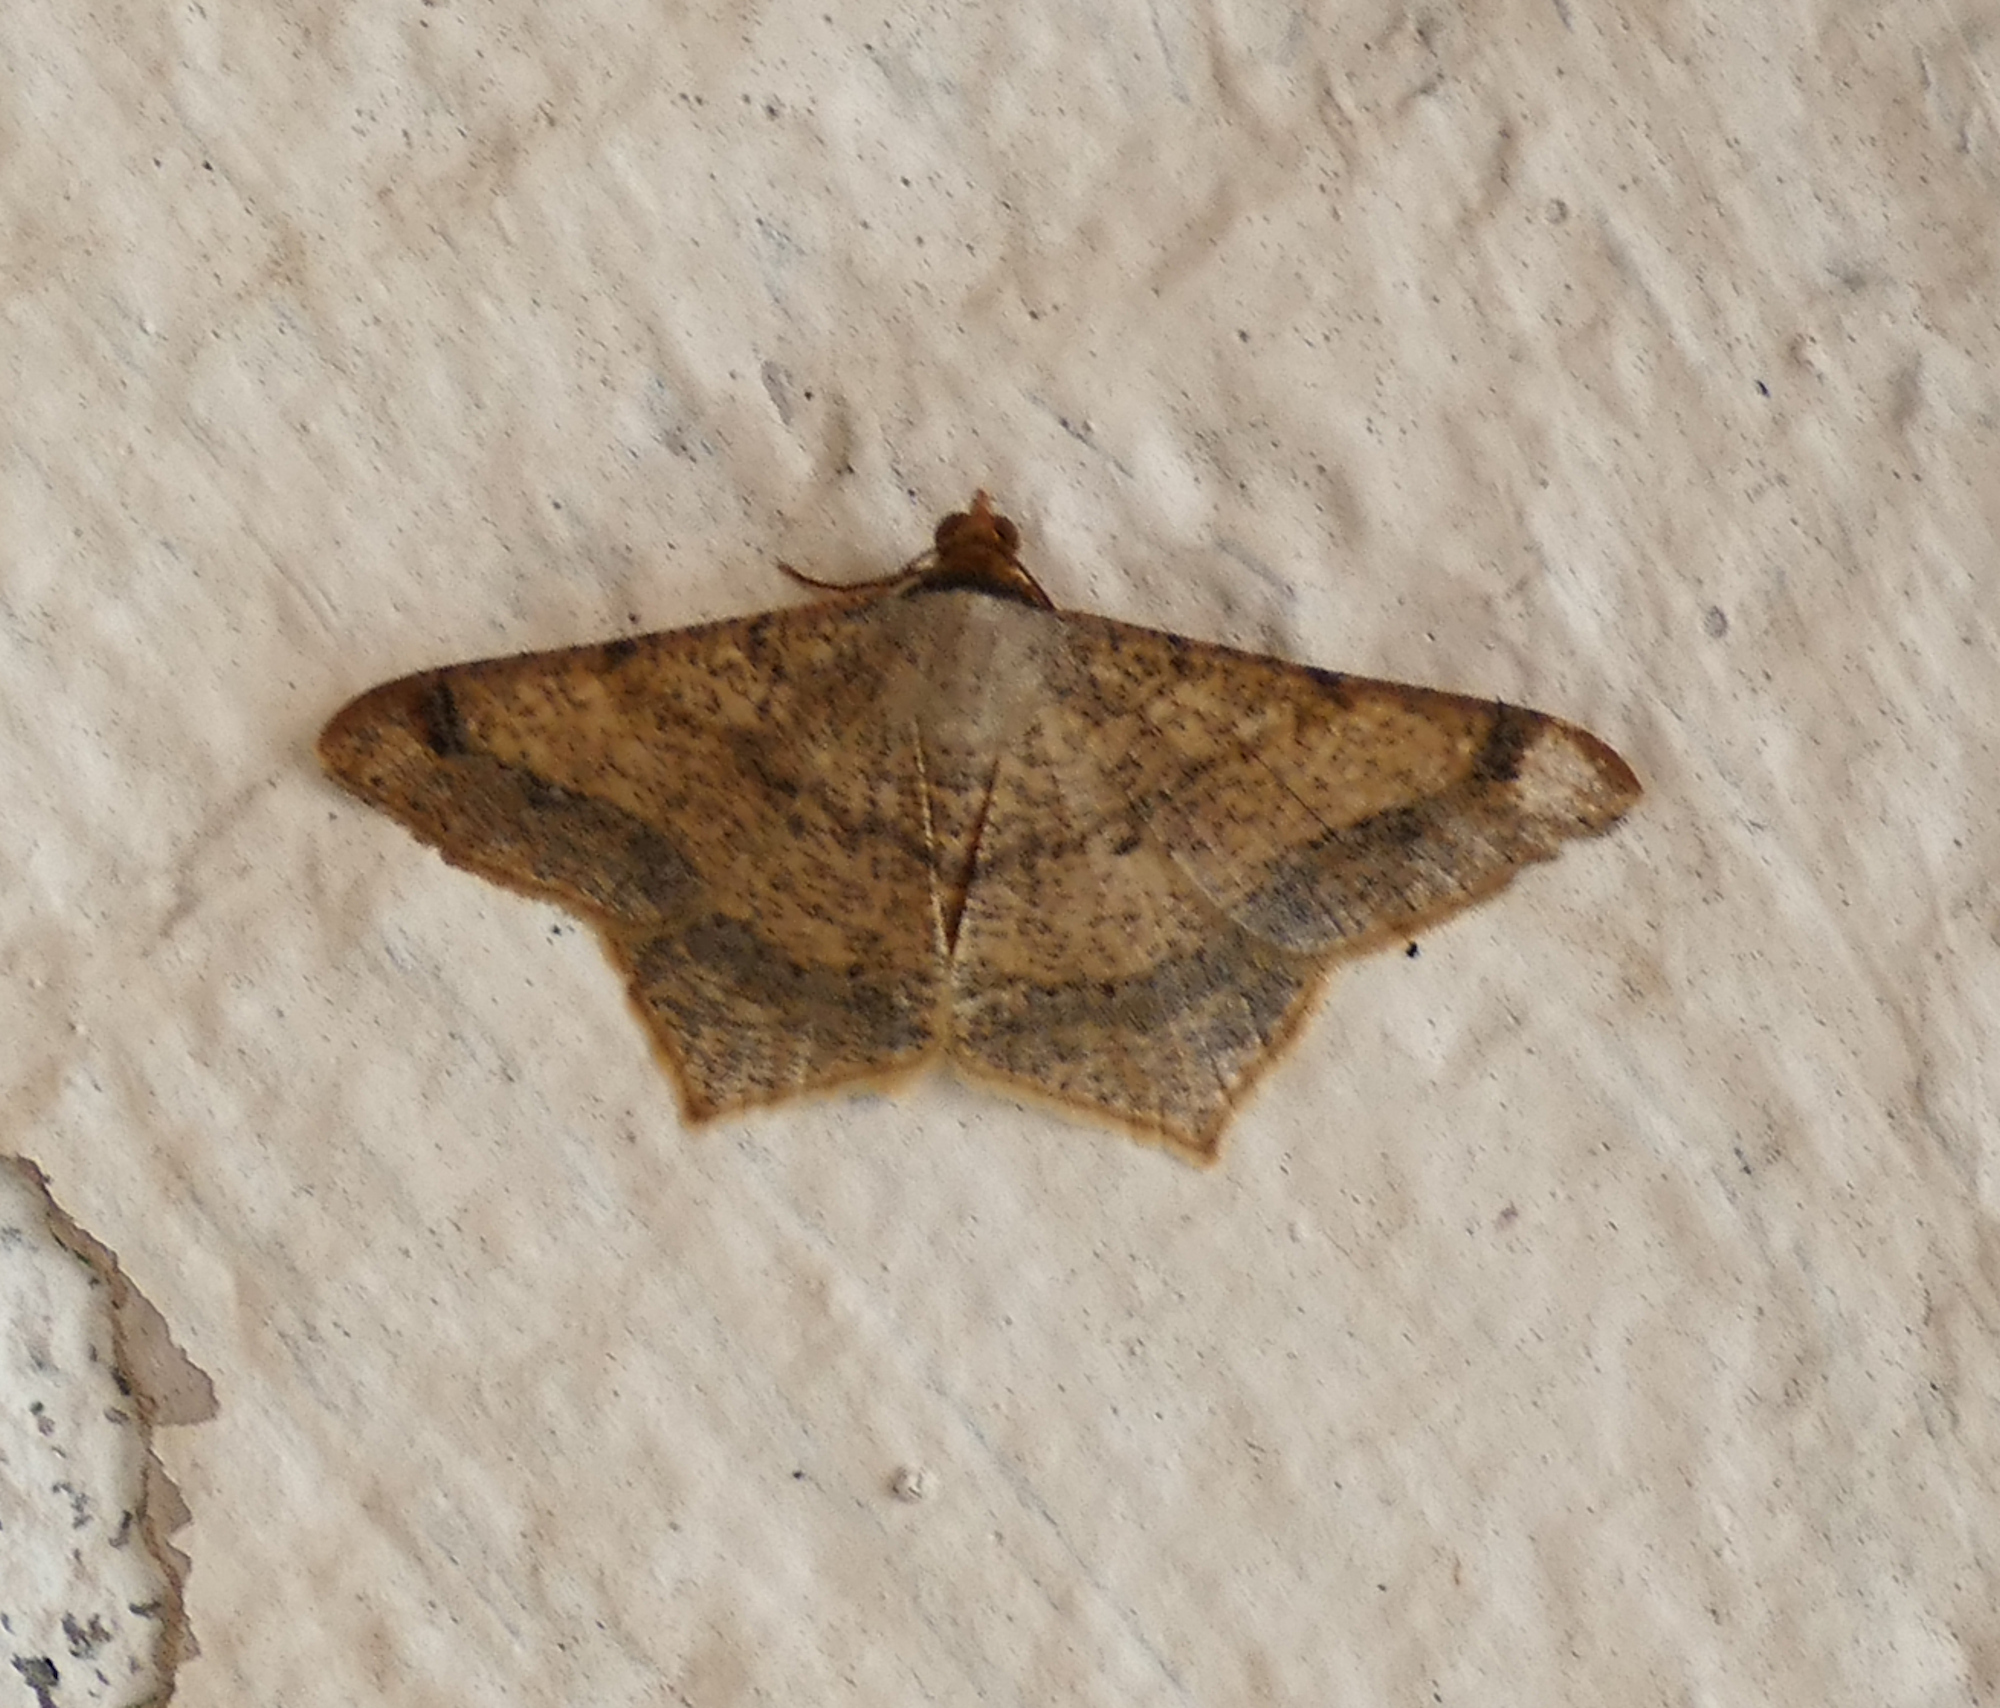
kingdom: Animalia
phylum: Arthropoda
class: Insecta
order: Lepidoptera
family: Geometridae
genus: Macaria
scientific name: Macaria abydata
